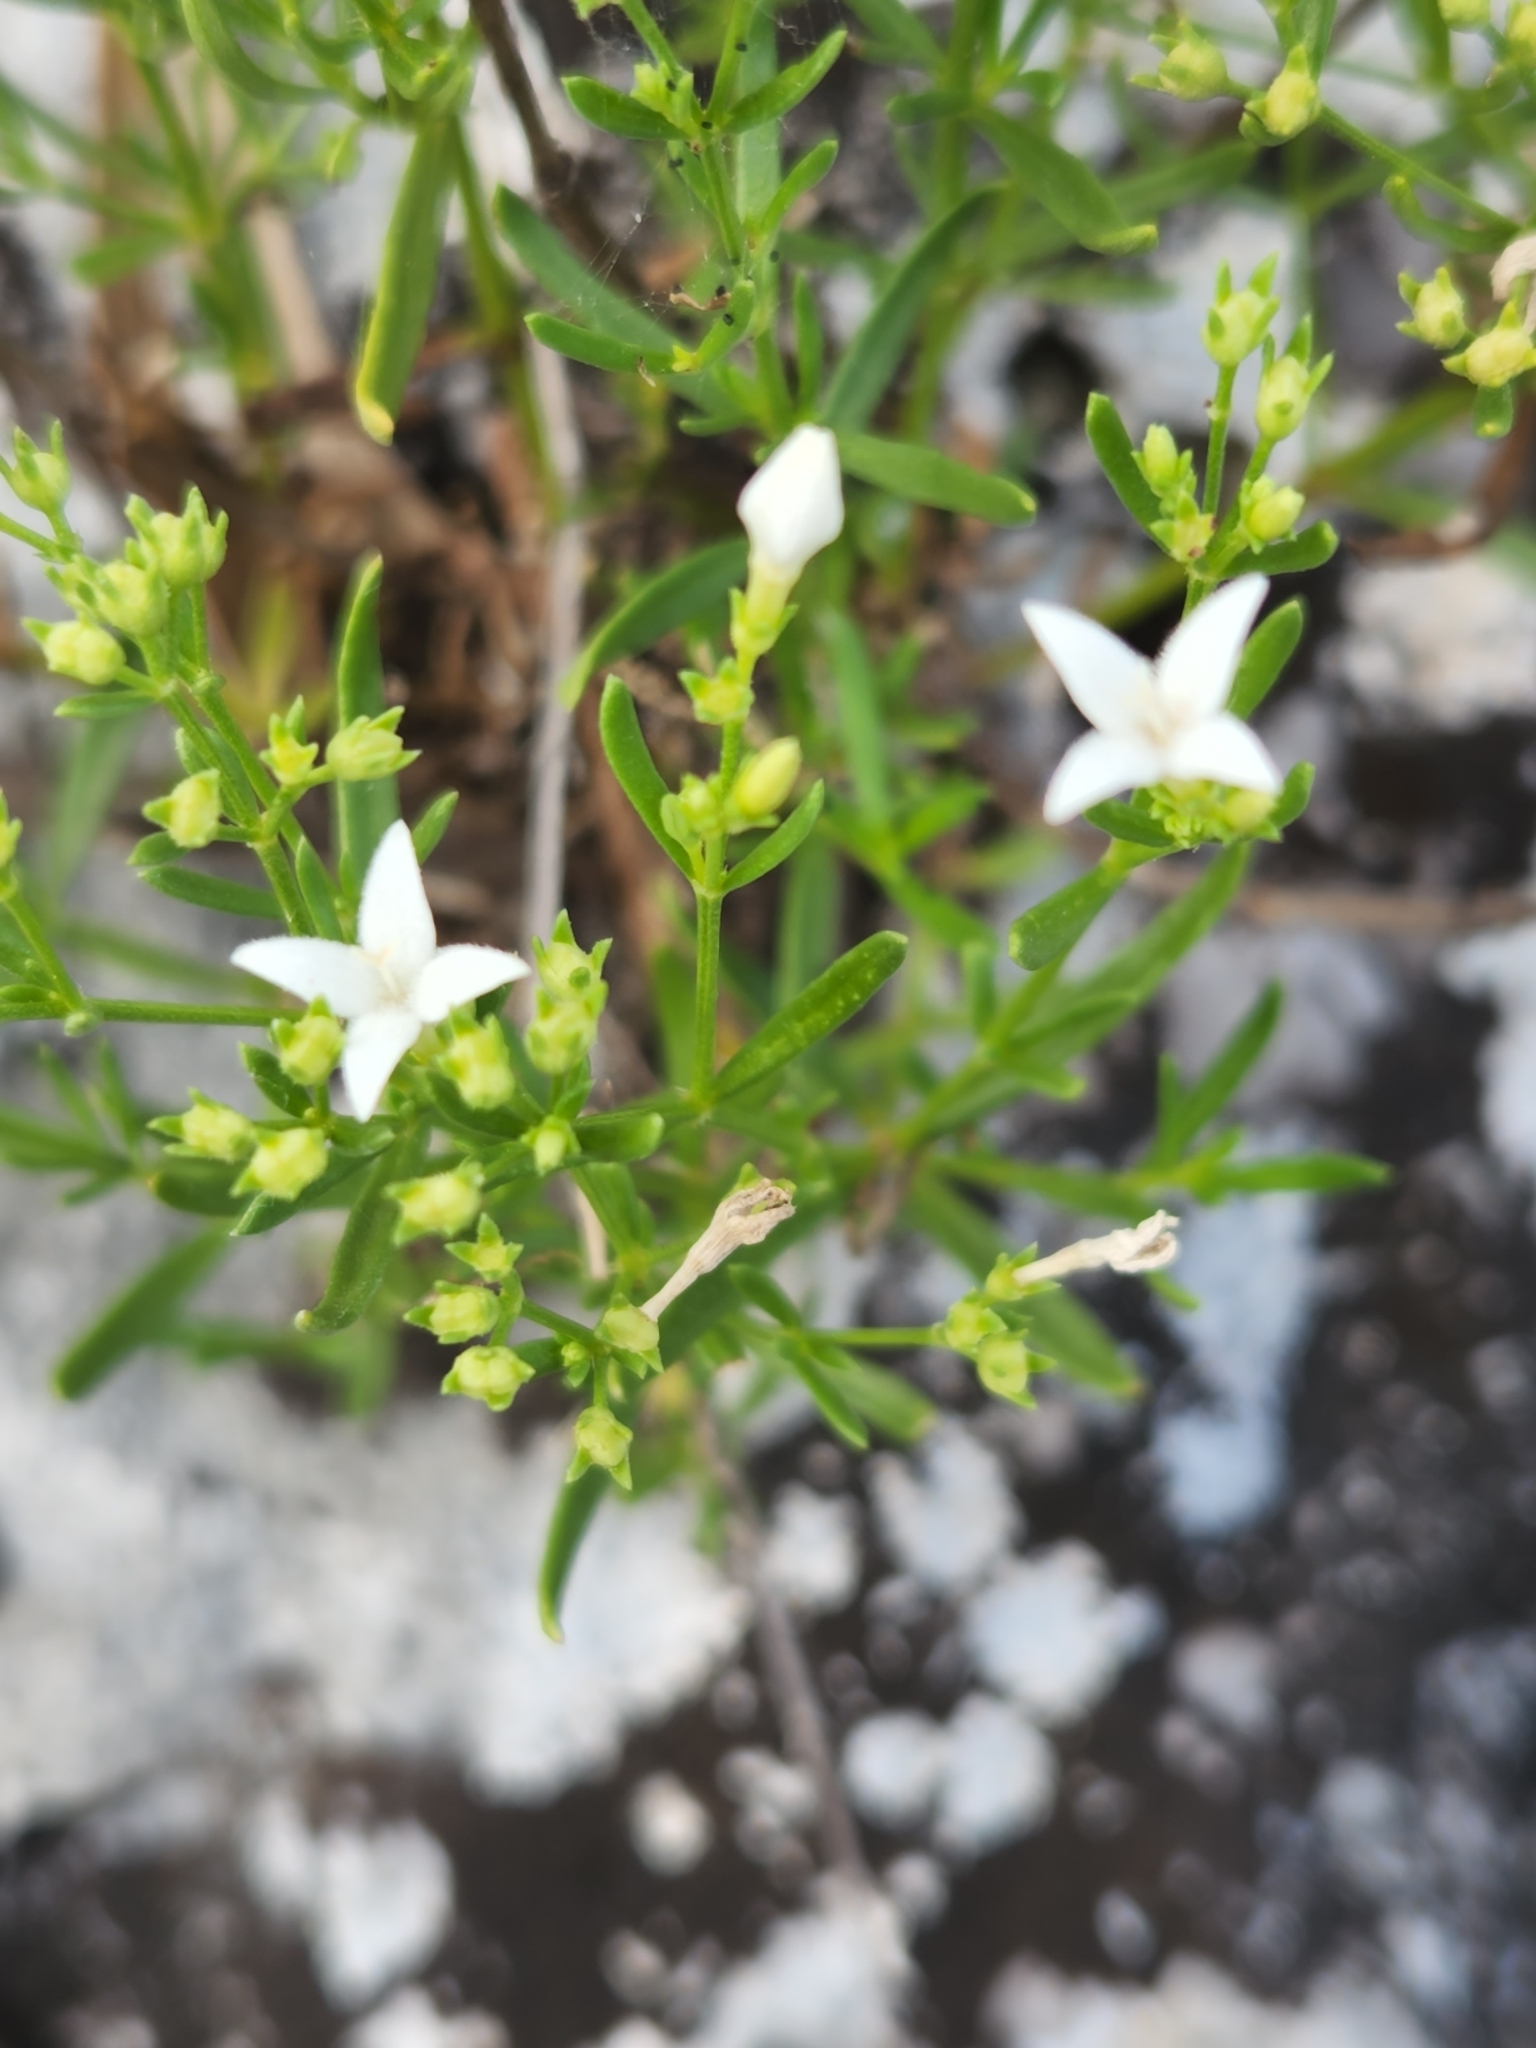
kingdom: Plantae
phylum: Tracheophyta
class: Magnoliopsida
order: Gentianales
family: Rubiaceae
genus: Stenaria
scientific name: Stenaria nigricans
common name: Diamondflowers
